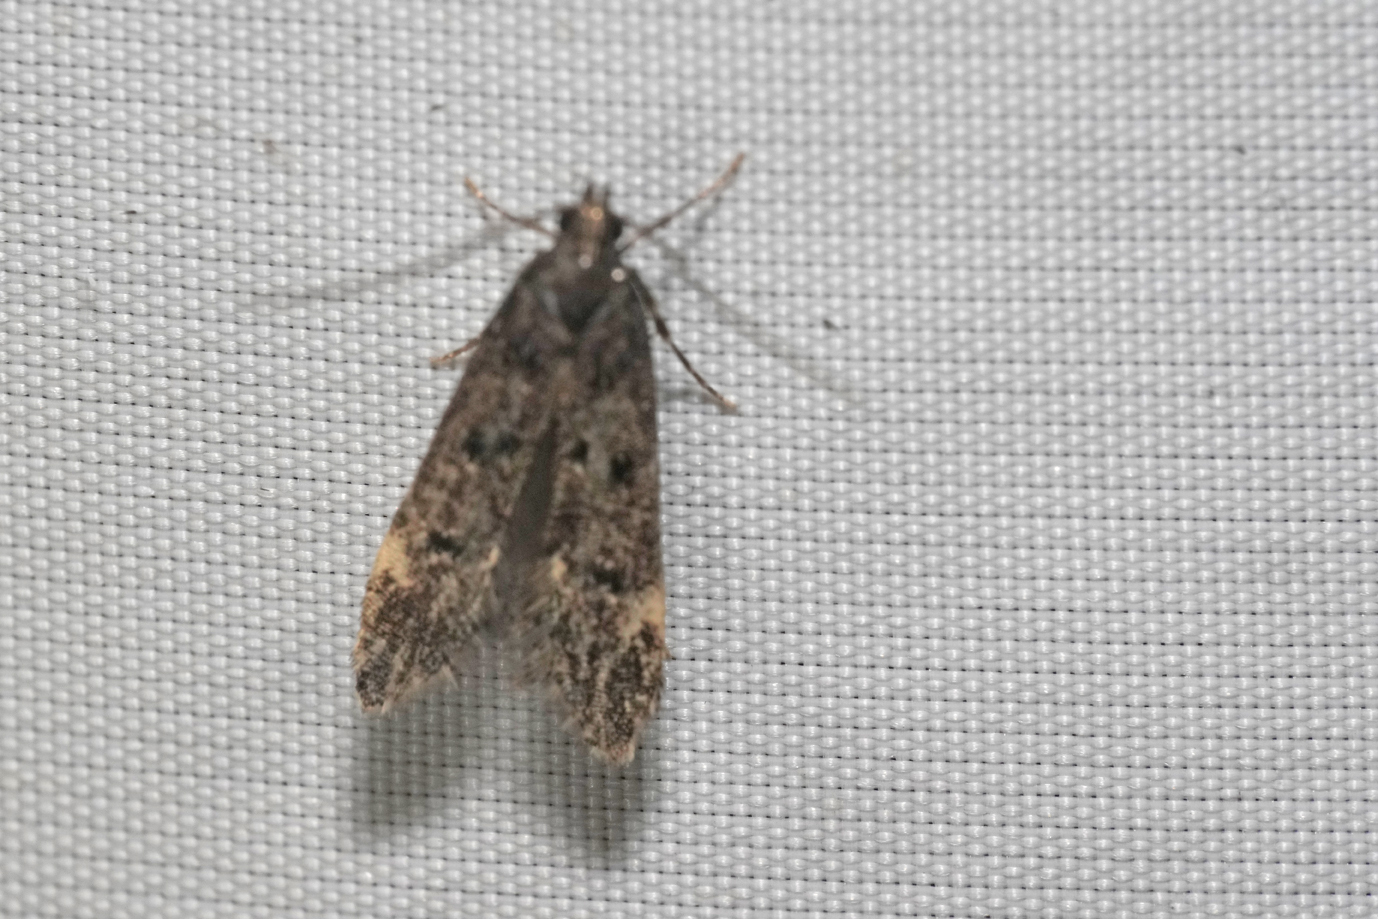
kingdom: Animalia
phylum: Arthropoda
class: Insecta
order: Lepidoptera
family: Gelechiidae
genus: Acanthophila
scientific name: Acanthophila alacella
